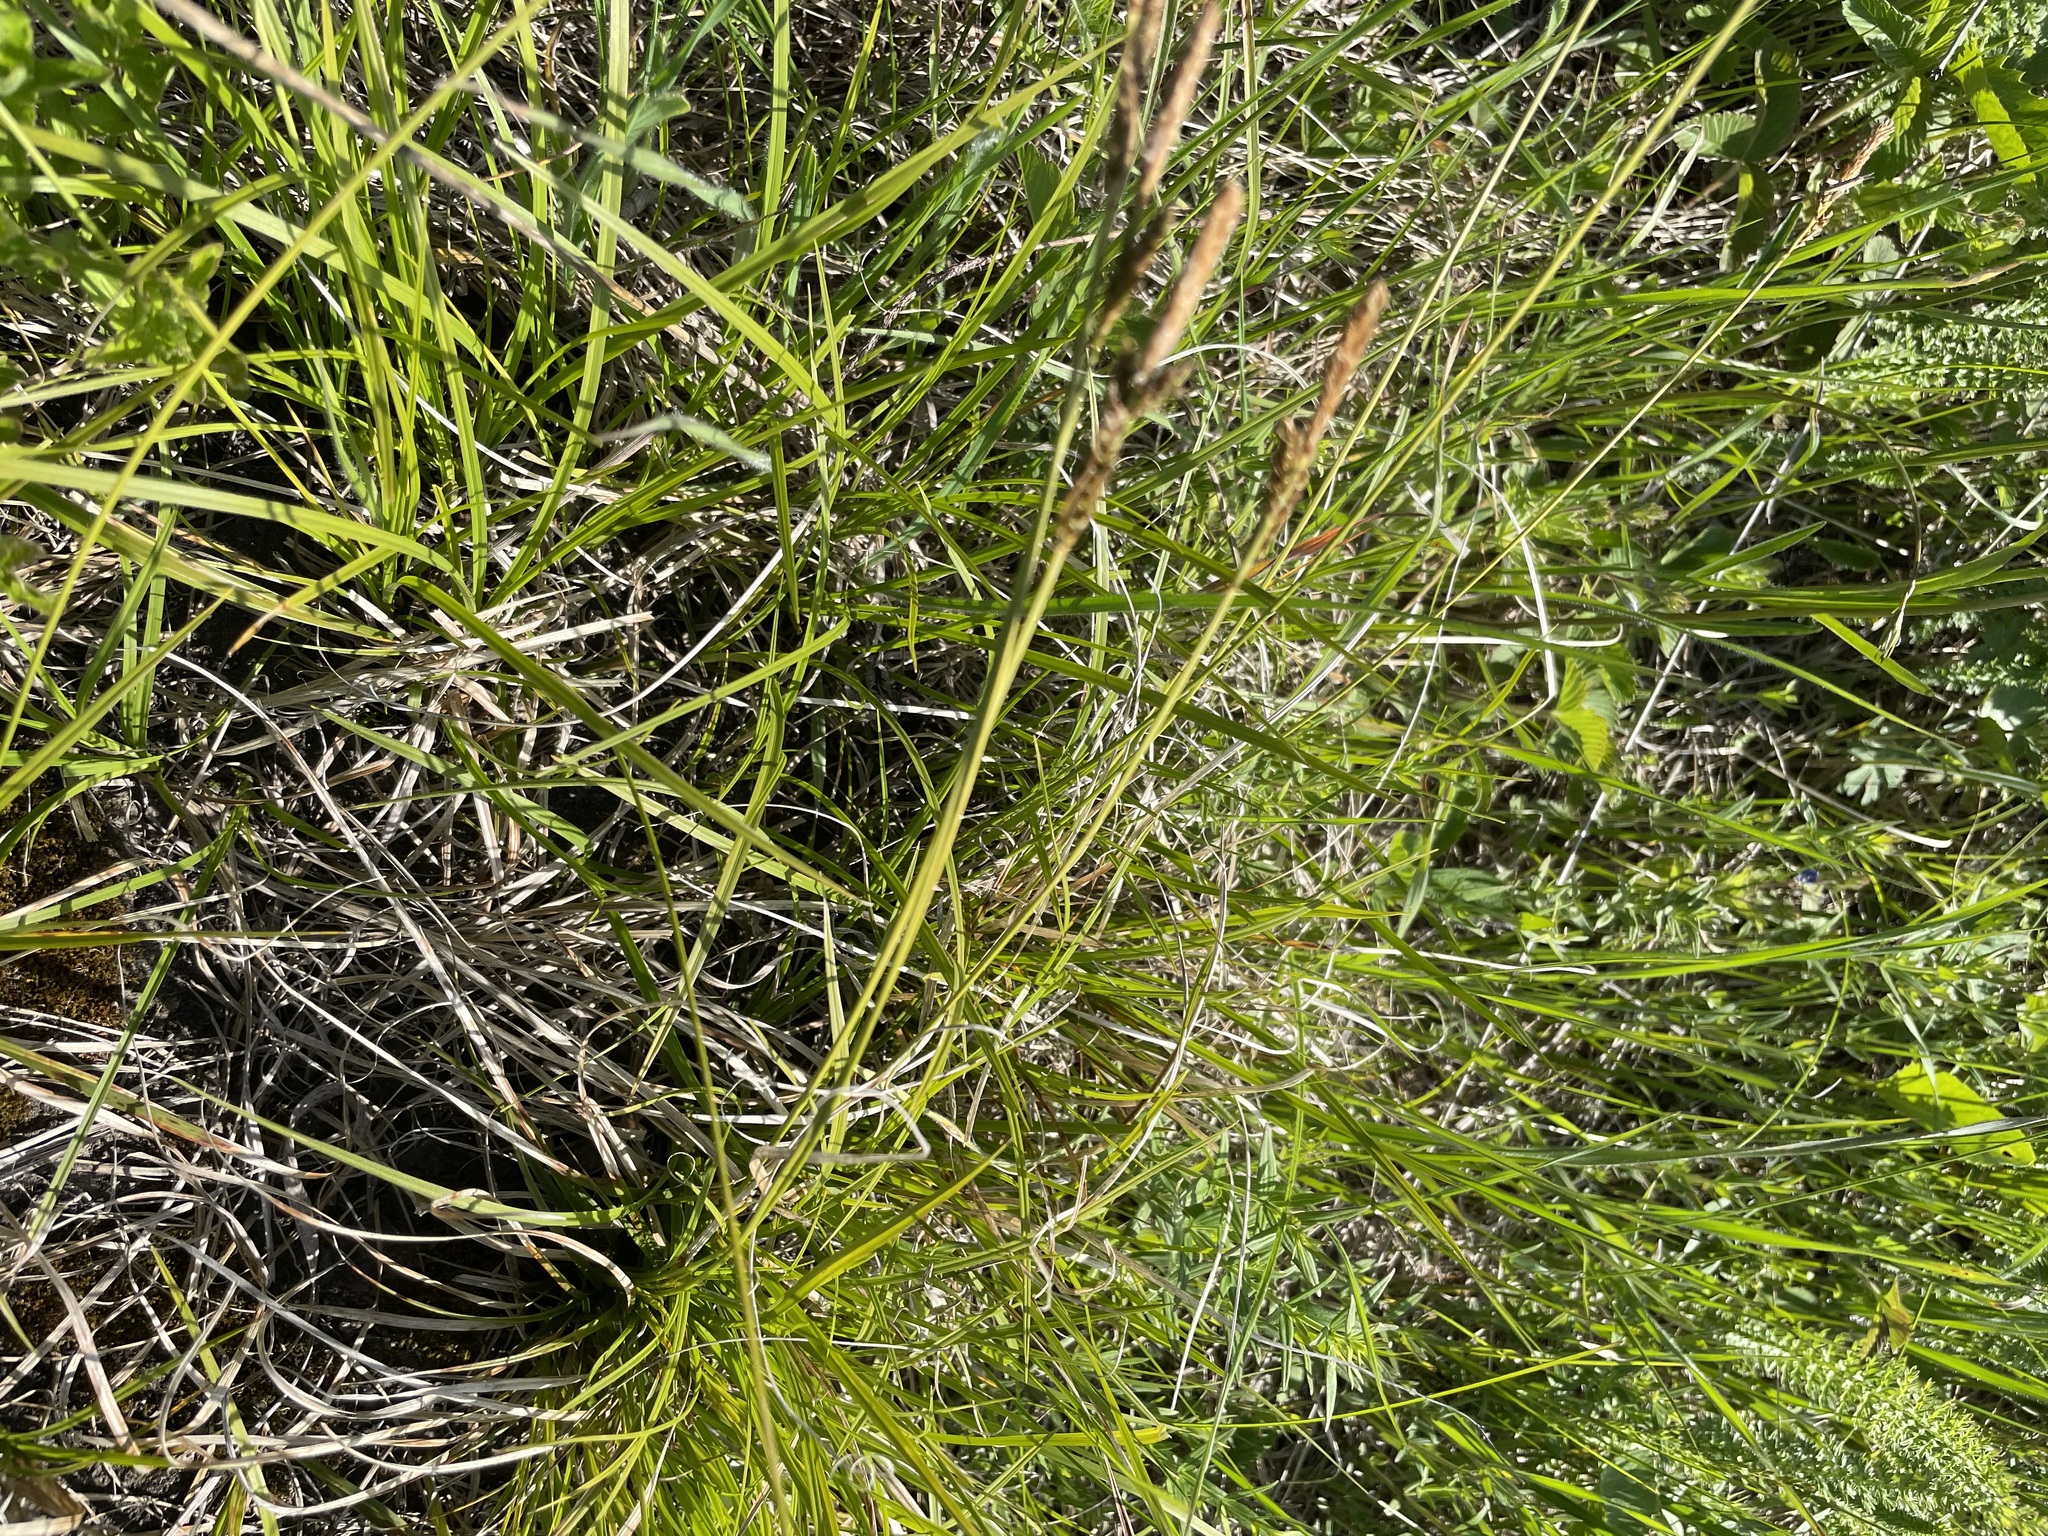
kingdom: Plantae
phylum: Tracheophyta
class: Liliopsida
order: Poales
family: Cyperaceae
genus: Carex
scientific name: Carex caryophyllea
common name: Spring sedge
